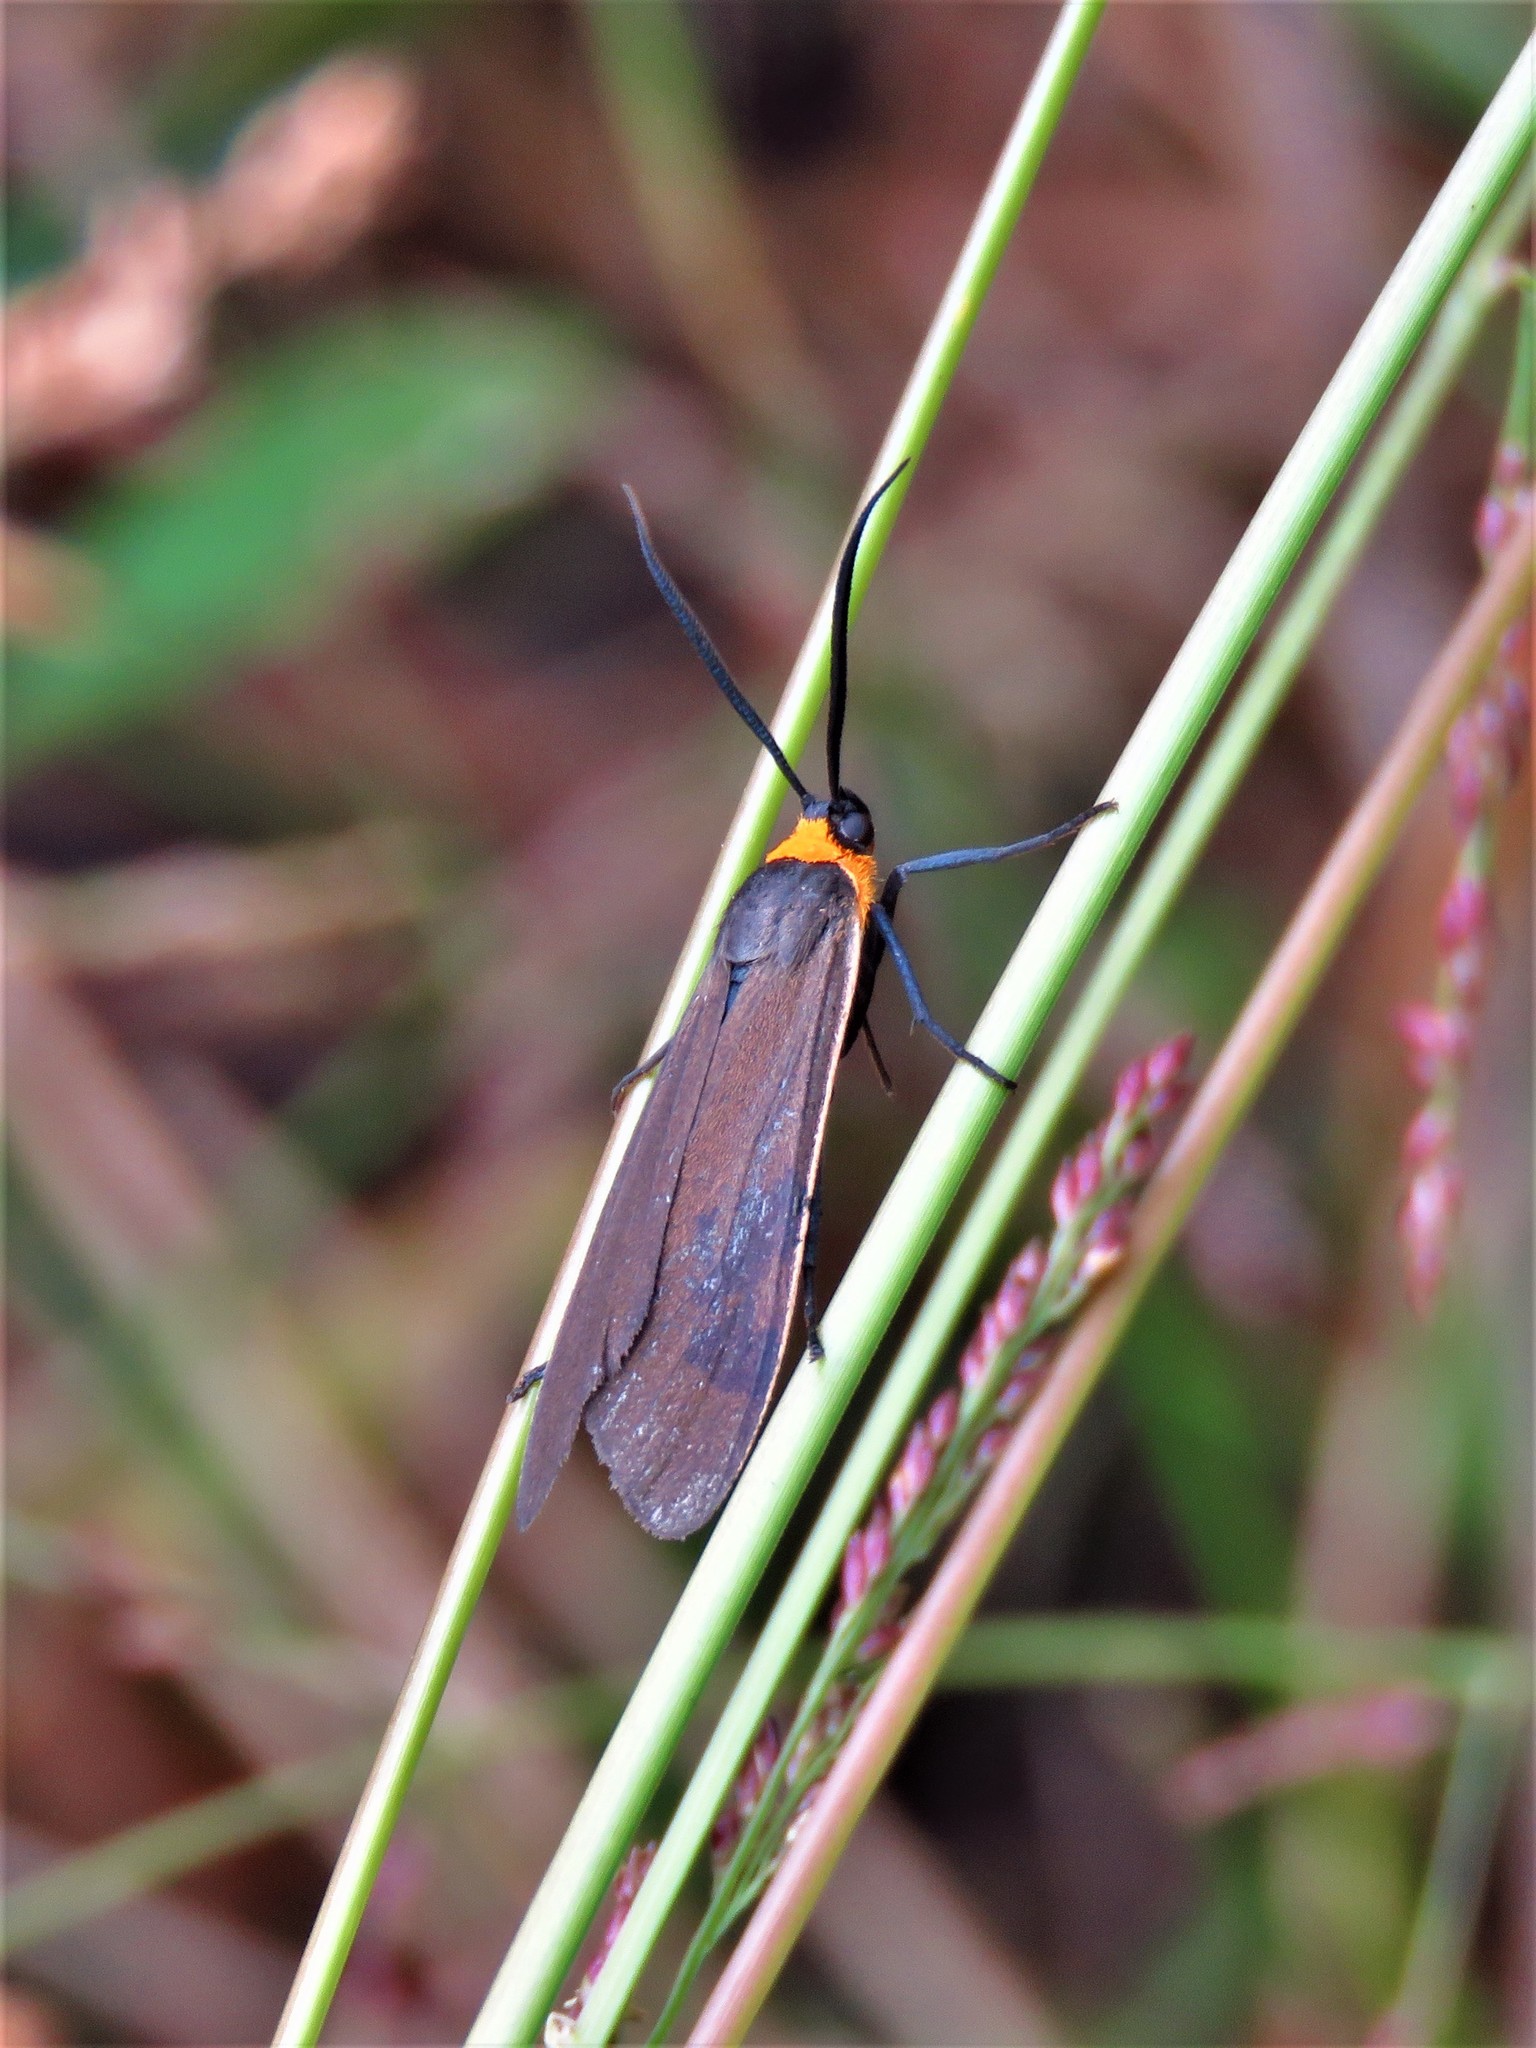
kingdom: Animalia
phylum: Arthropoda
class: Insecta
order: Lepidoptera
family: Erebidae
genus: Cisseps
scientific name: Cisseps fulvicollis
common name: Yellow-collared scape moth
